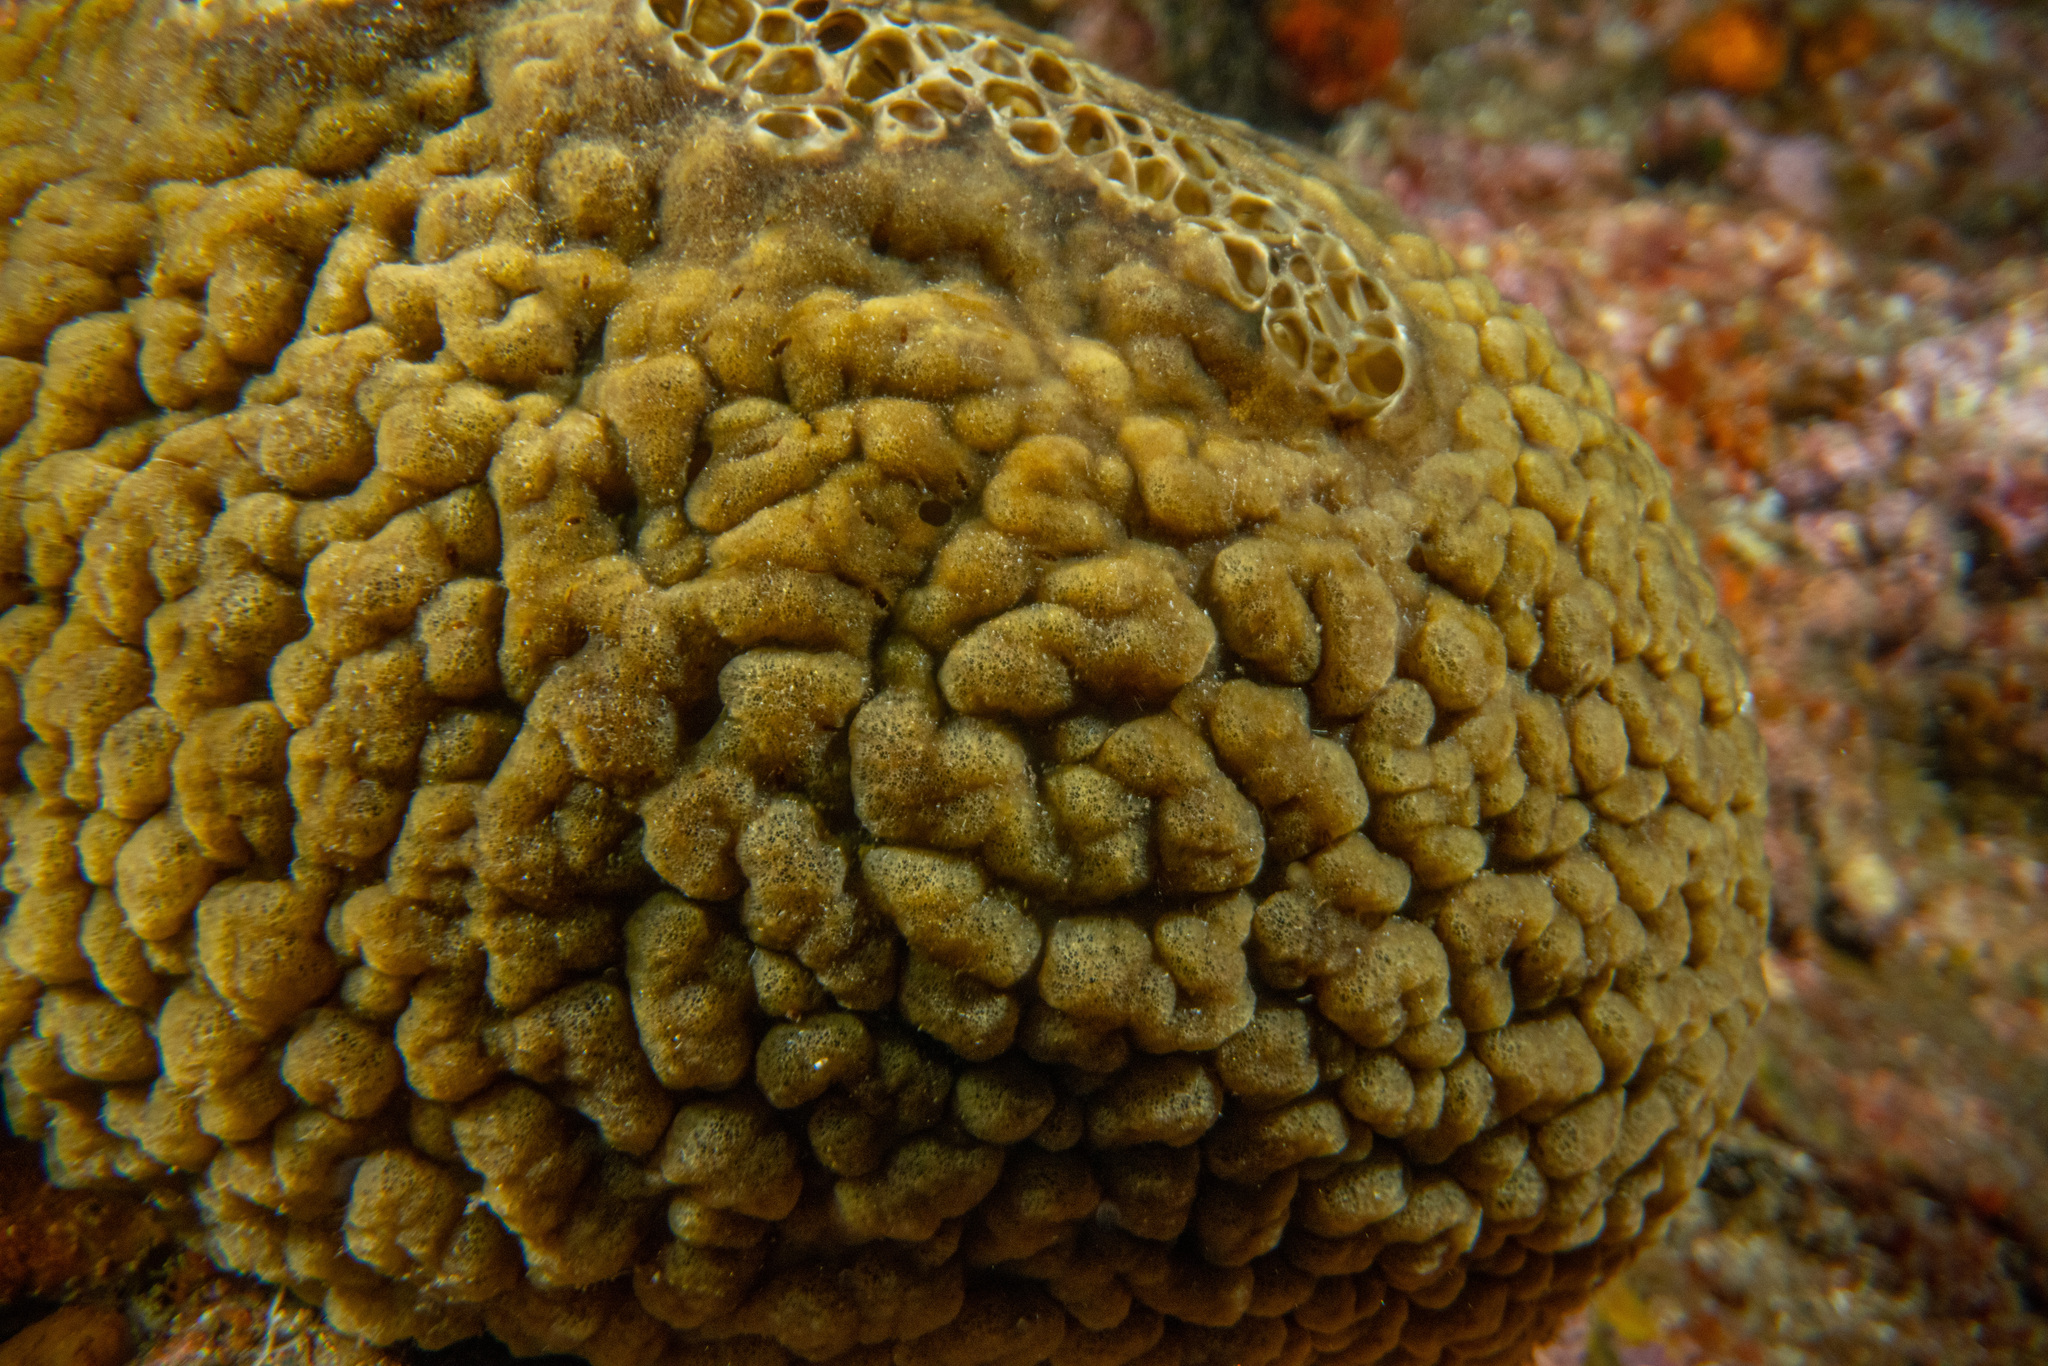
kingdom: Animalia
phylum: Porifera
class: Demospongiae
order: Polymastiida
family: Polymastiidae
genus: Polymastia
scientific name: Polymastia massalis
